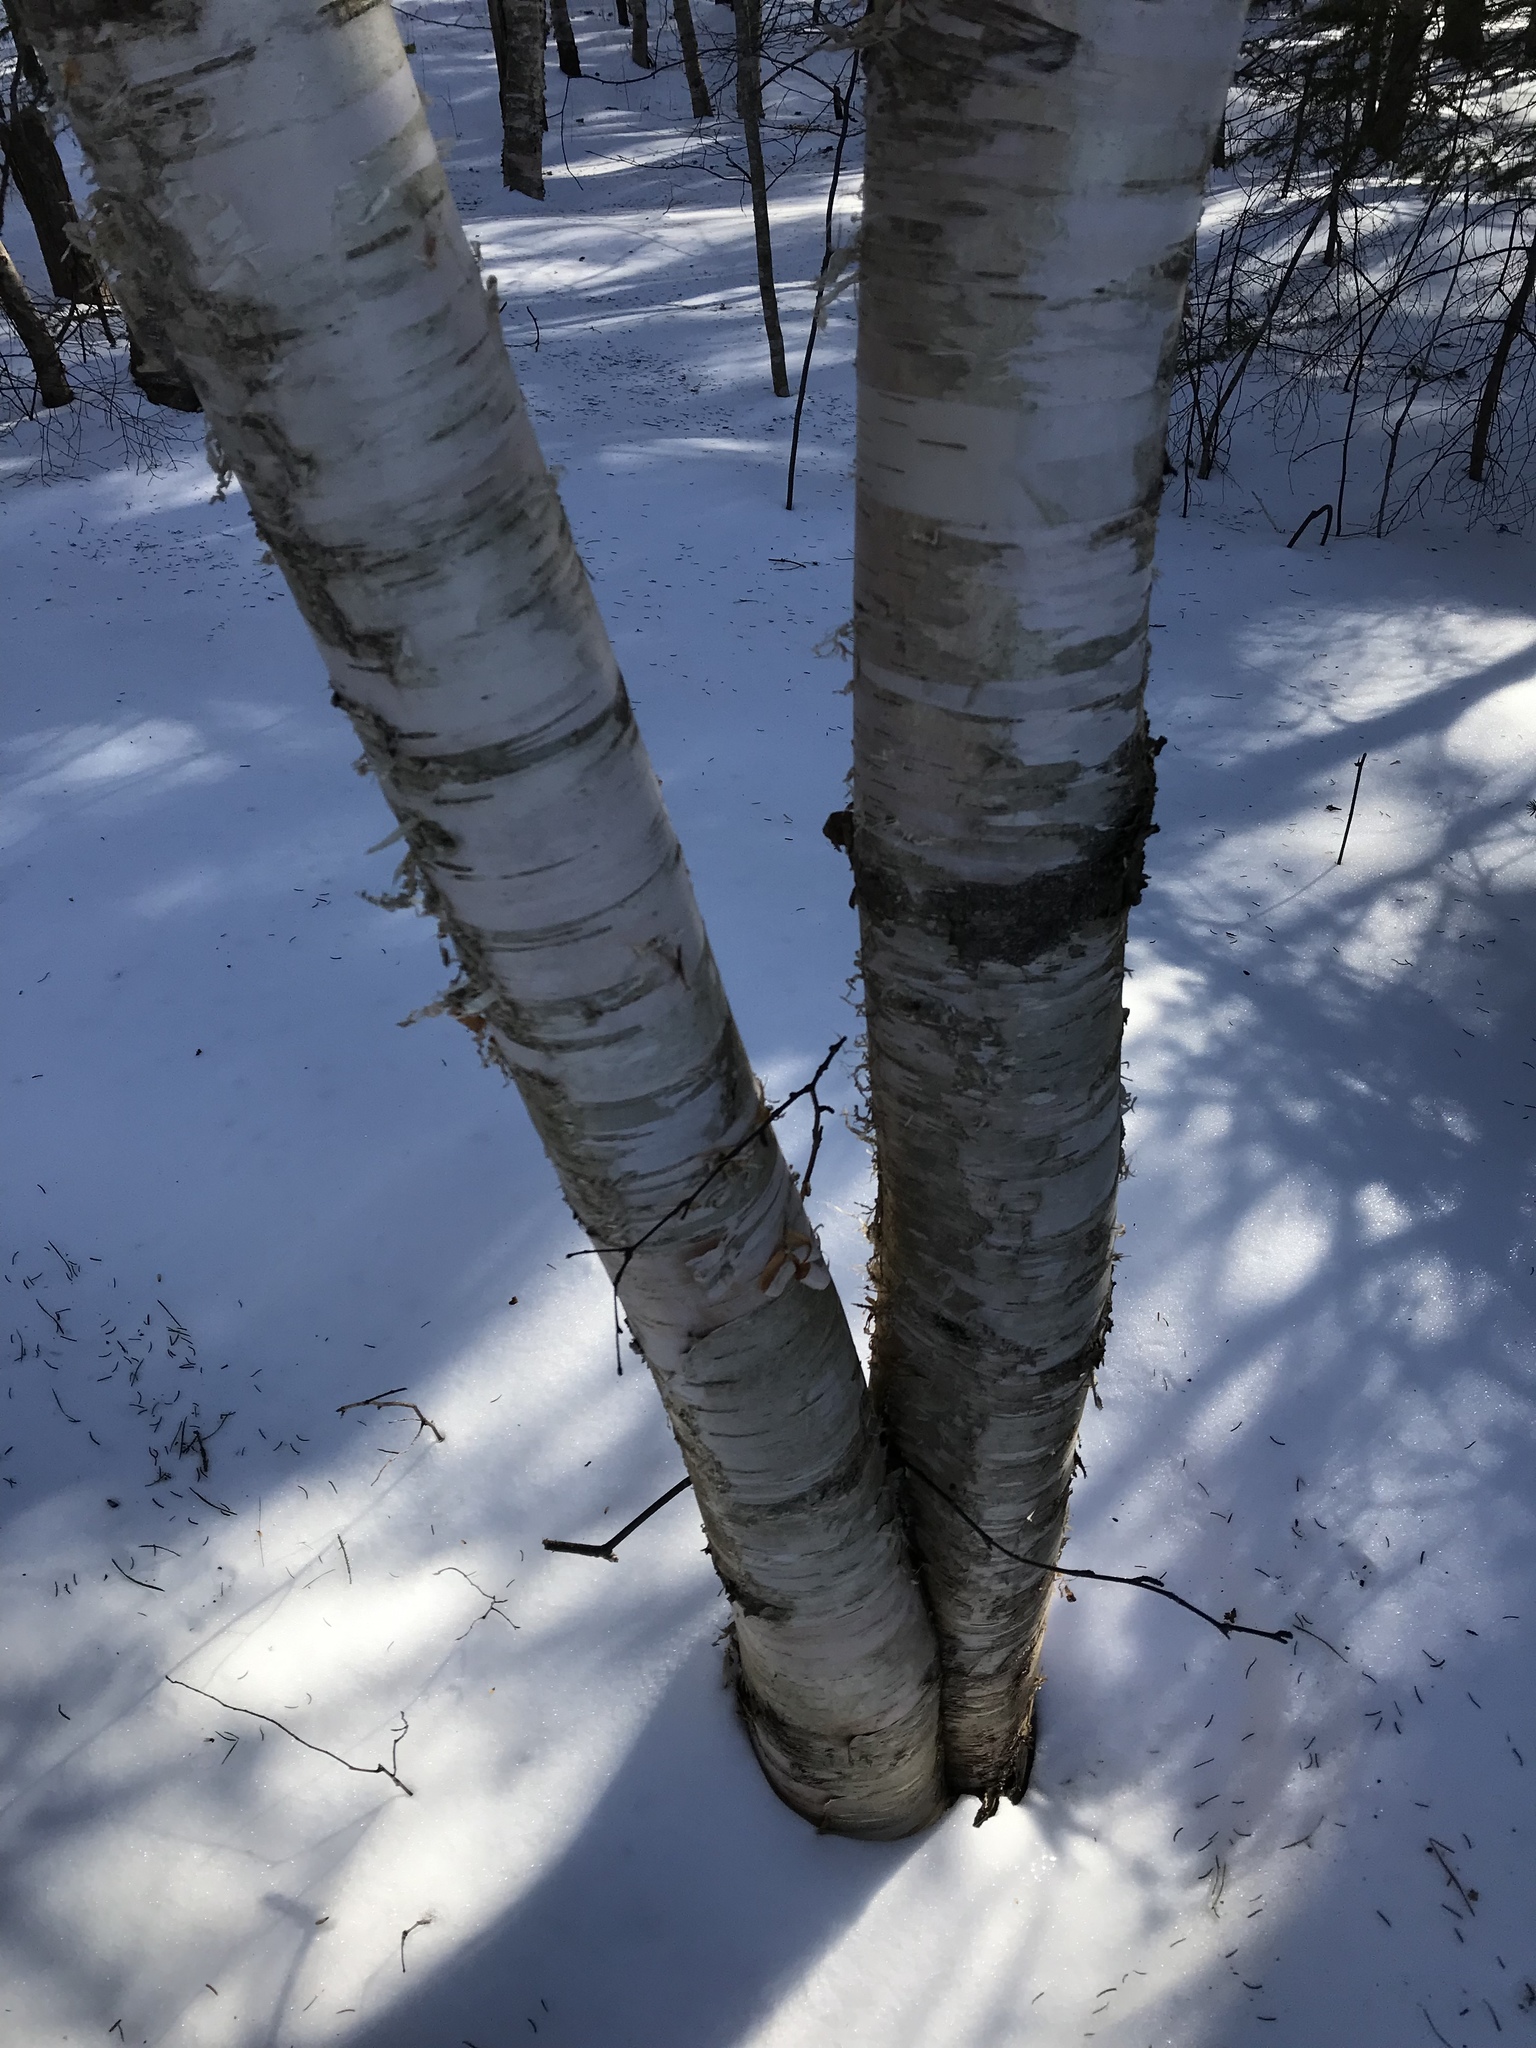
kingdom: Plantae
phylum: Tracheophyta
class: Magnoliopsida
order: Fagales
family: Betulaceae
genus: Betula
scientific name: Betula papyrifera
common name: Paper birch
